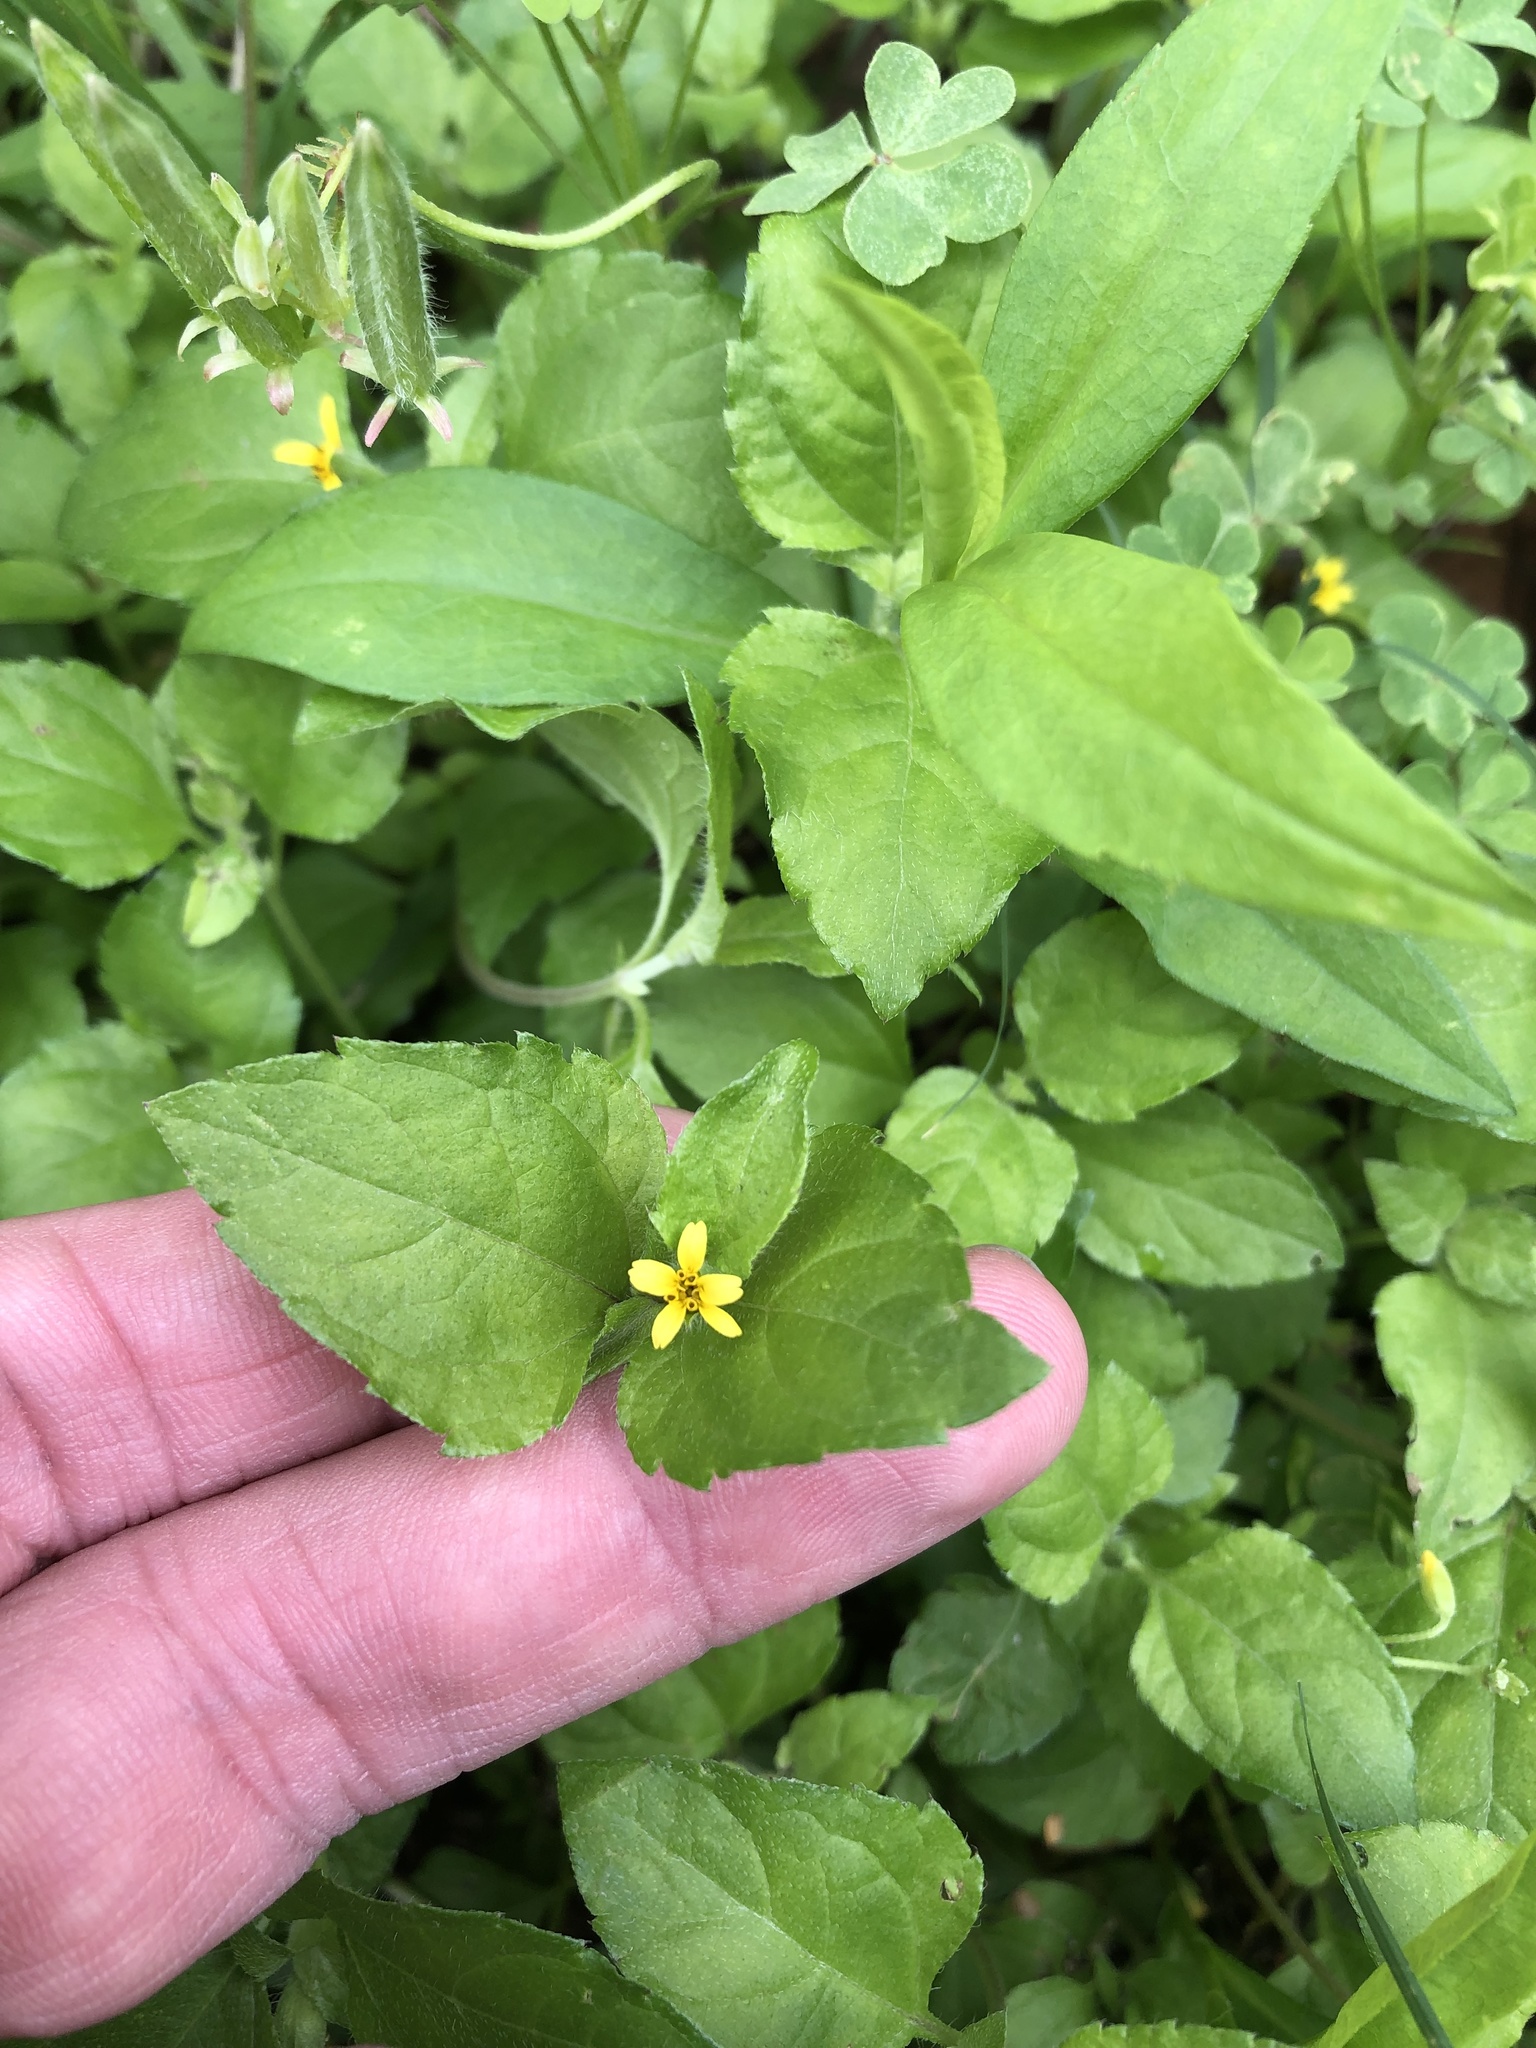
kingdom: Plantae
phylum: Tracheophyta
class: Magnoliopsida
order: Asterales
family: Asteraceae
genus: Calyptocarpus
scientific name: Calyptocarpus vialis
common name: Straggler daisy
